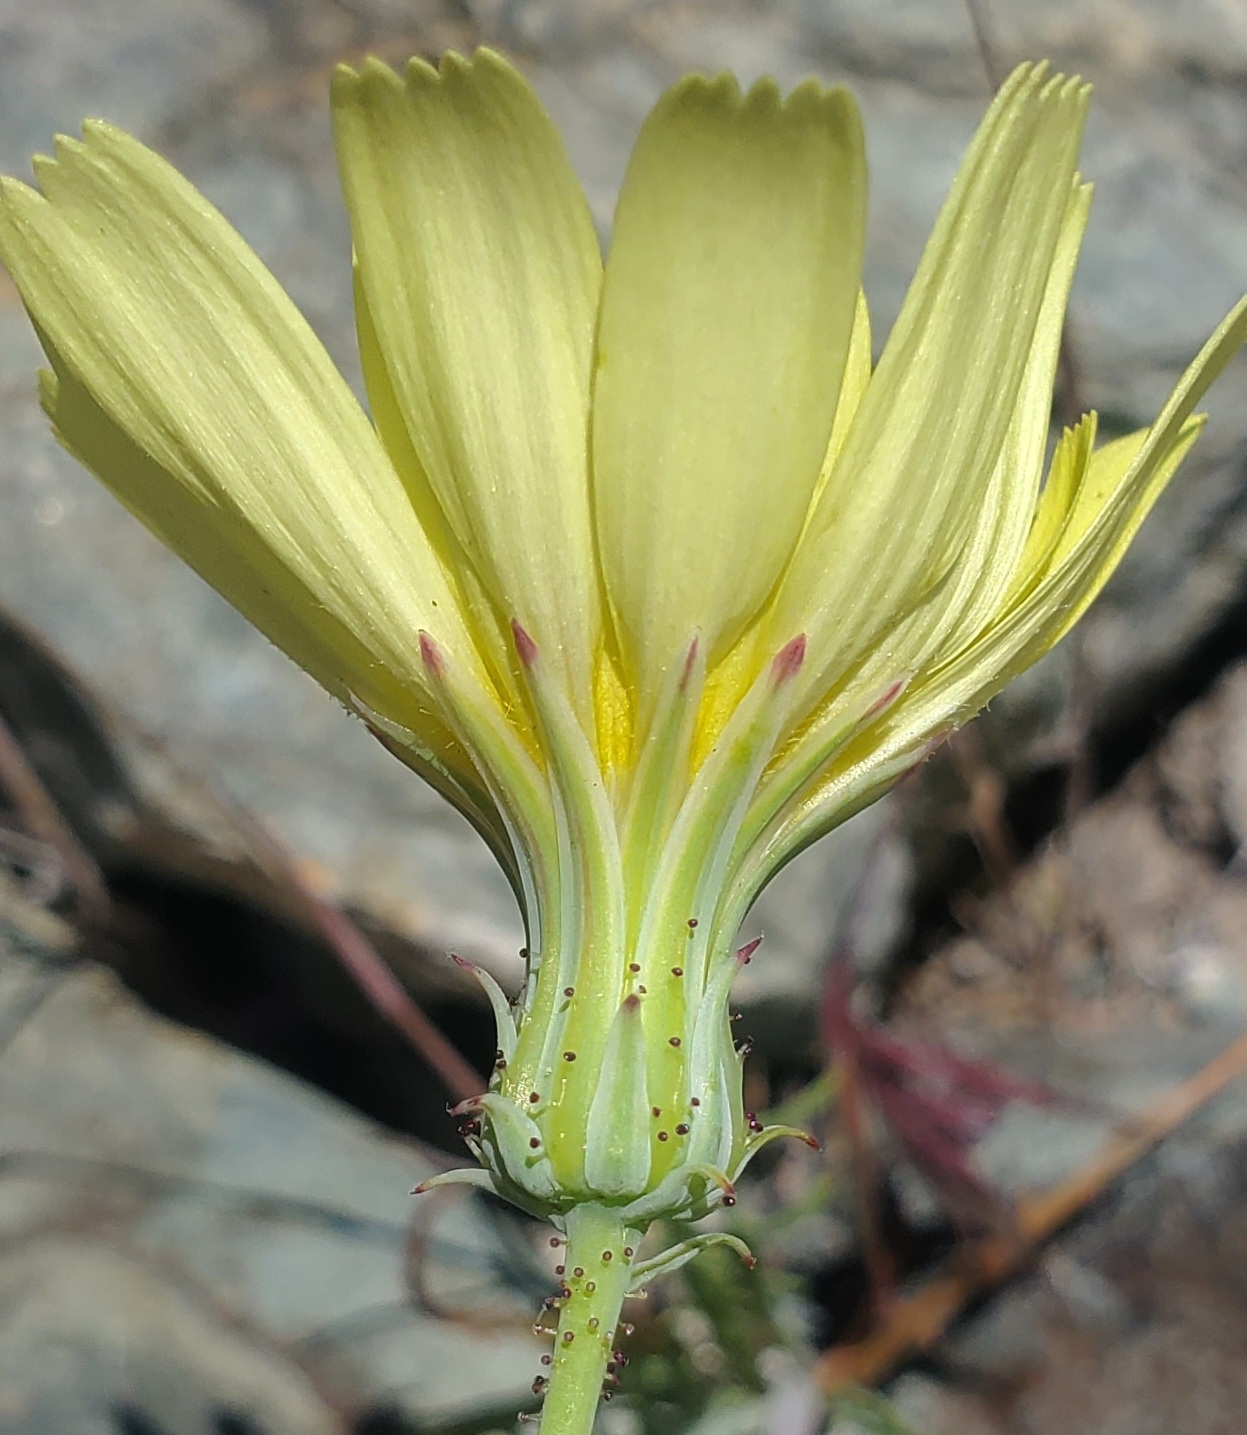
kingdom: Plantae
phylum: Tracheophyta
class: Magnoliopsida
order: Asterales
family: Asteraceae
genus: Calycoseris
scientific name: Calycoseris parryi
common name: Yellow tackstem
